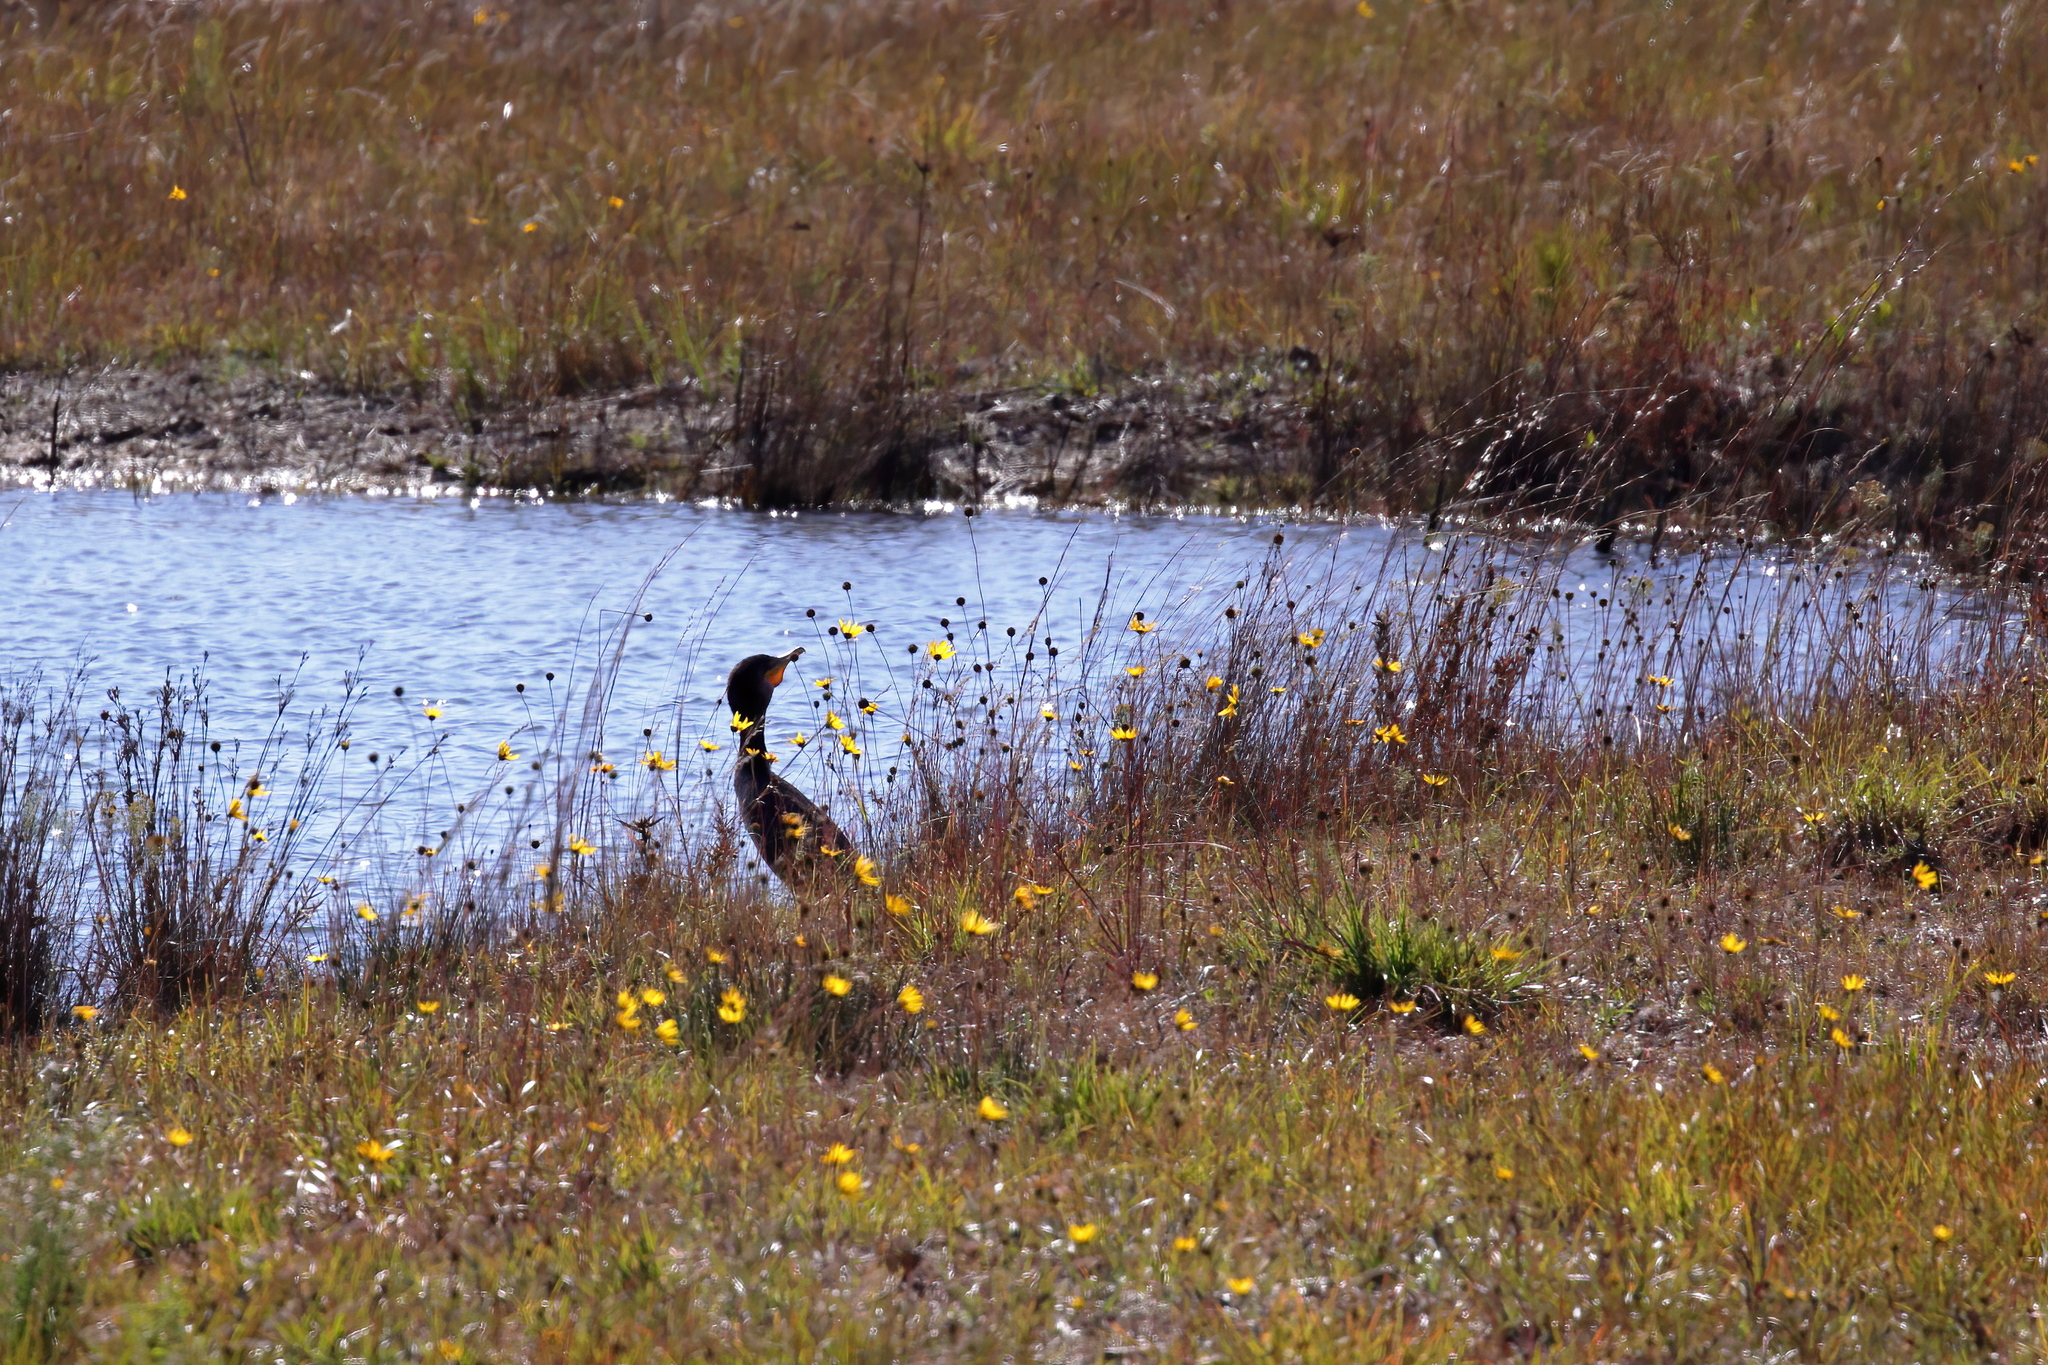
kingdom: Animalia
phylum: Chordata
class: Aves
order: Suliformes
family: Phalacrocoracidae
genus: Phalacrocorax
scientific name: Phalacrocorax auritus
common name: Double-crested cormorant
